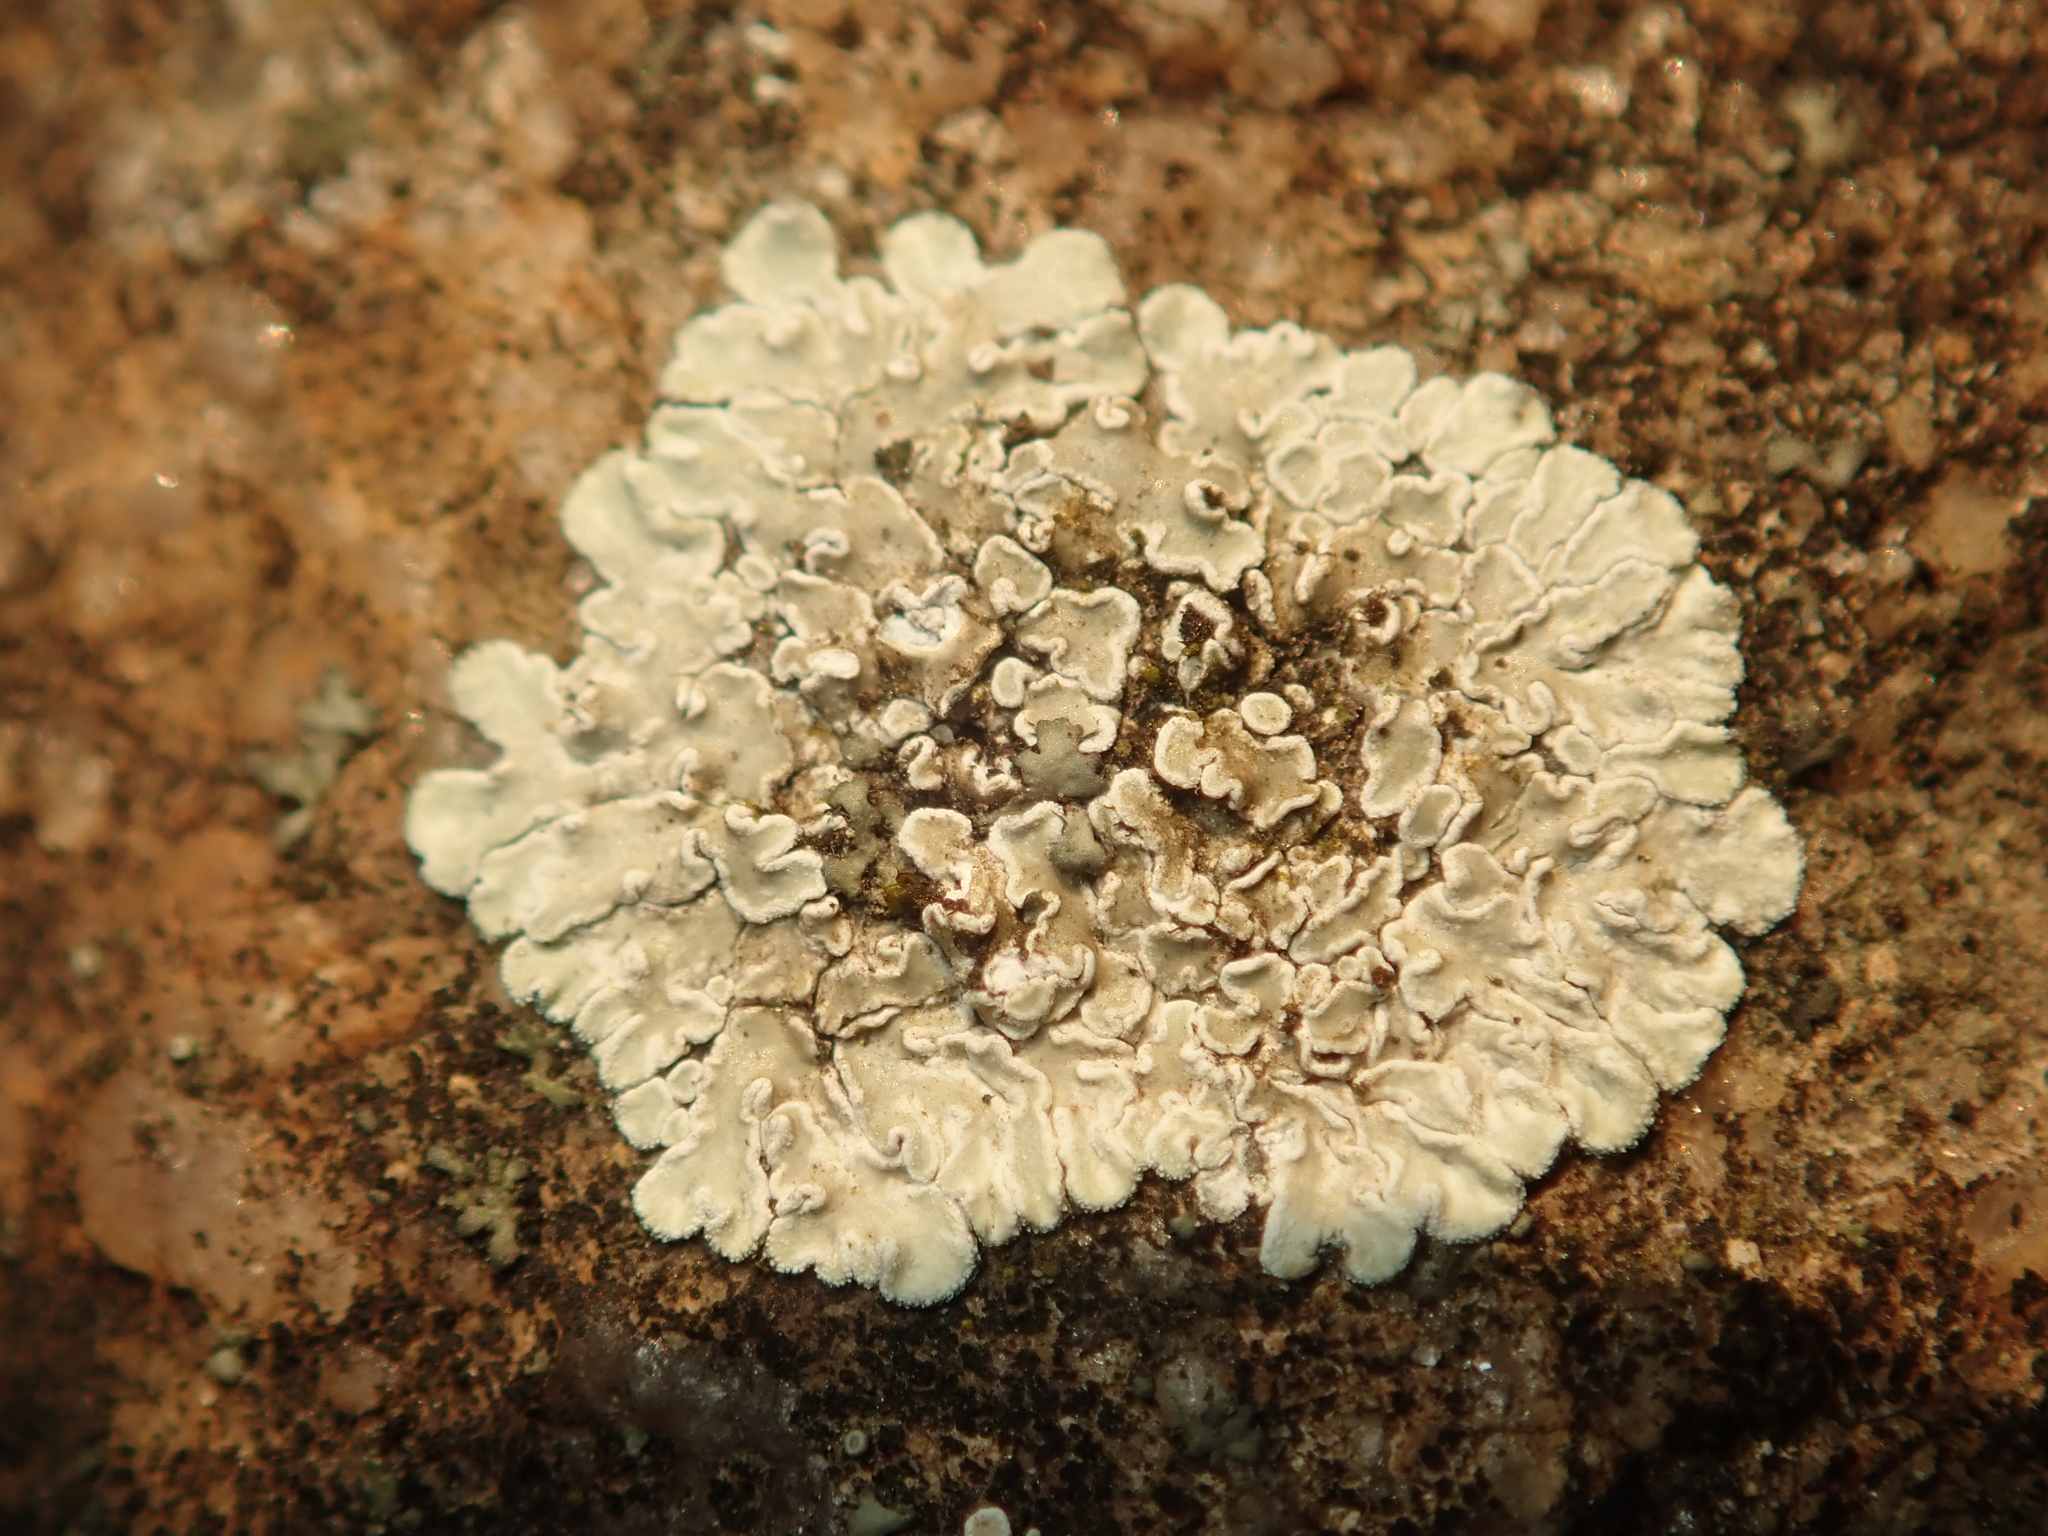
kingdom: Fungi
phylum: Ascomycota
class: Lecanoromycetes
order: Lecanorales
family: Lecanoraceae
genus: Protoparmeliopsis
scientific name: Protoparmeliopsis muralis
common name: Stonewall rim lichen
